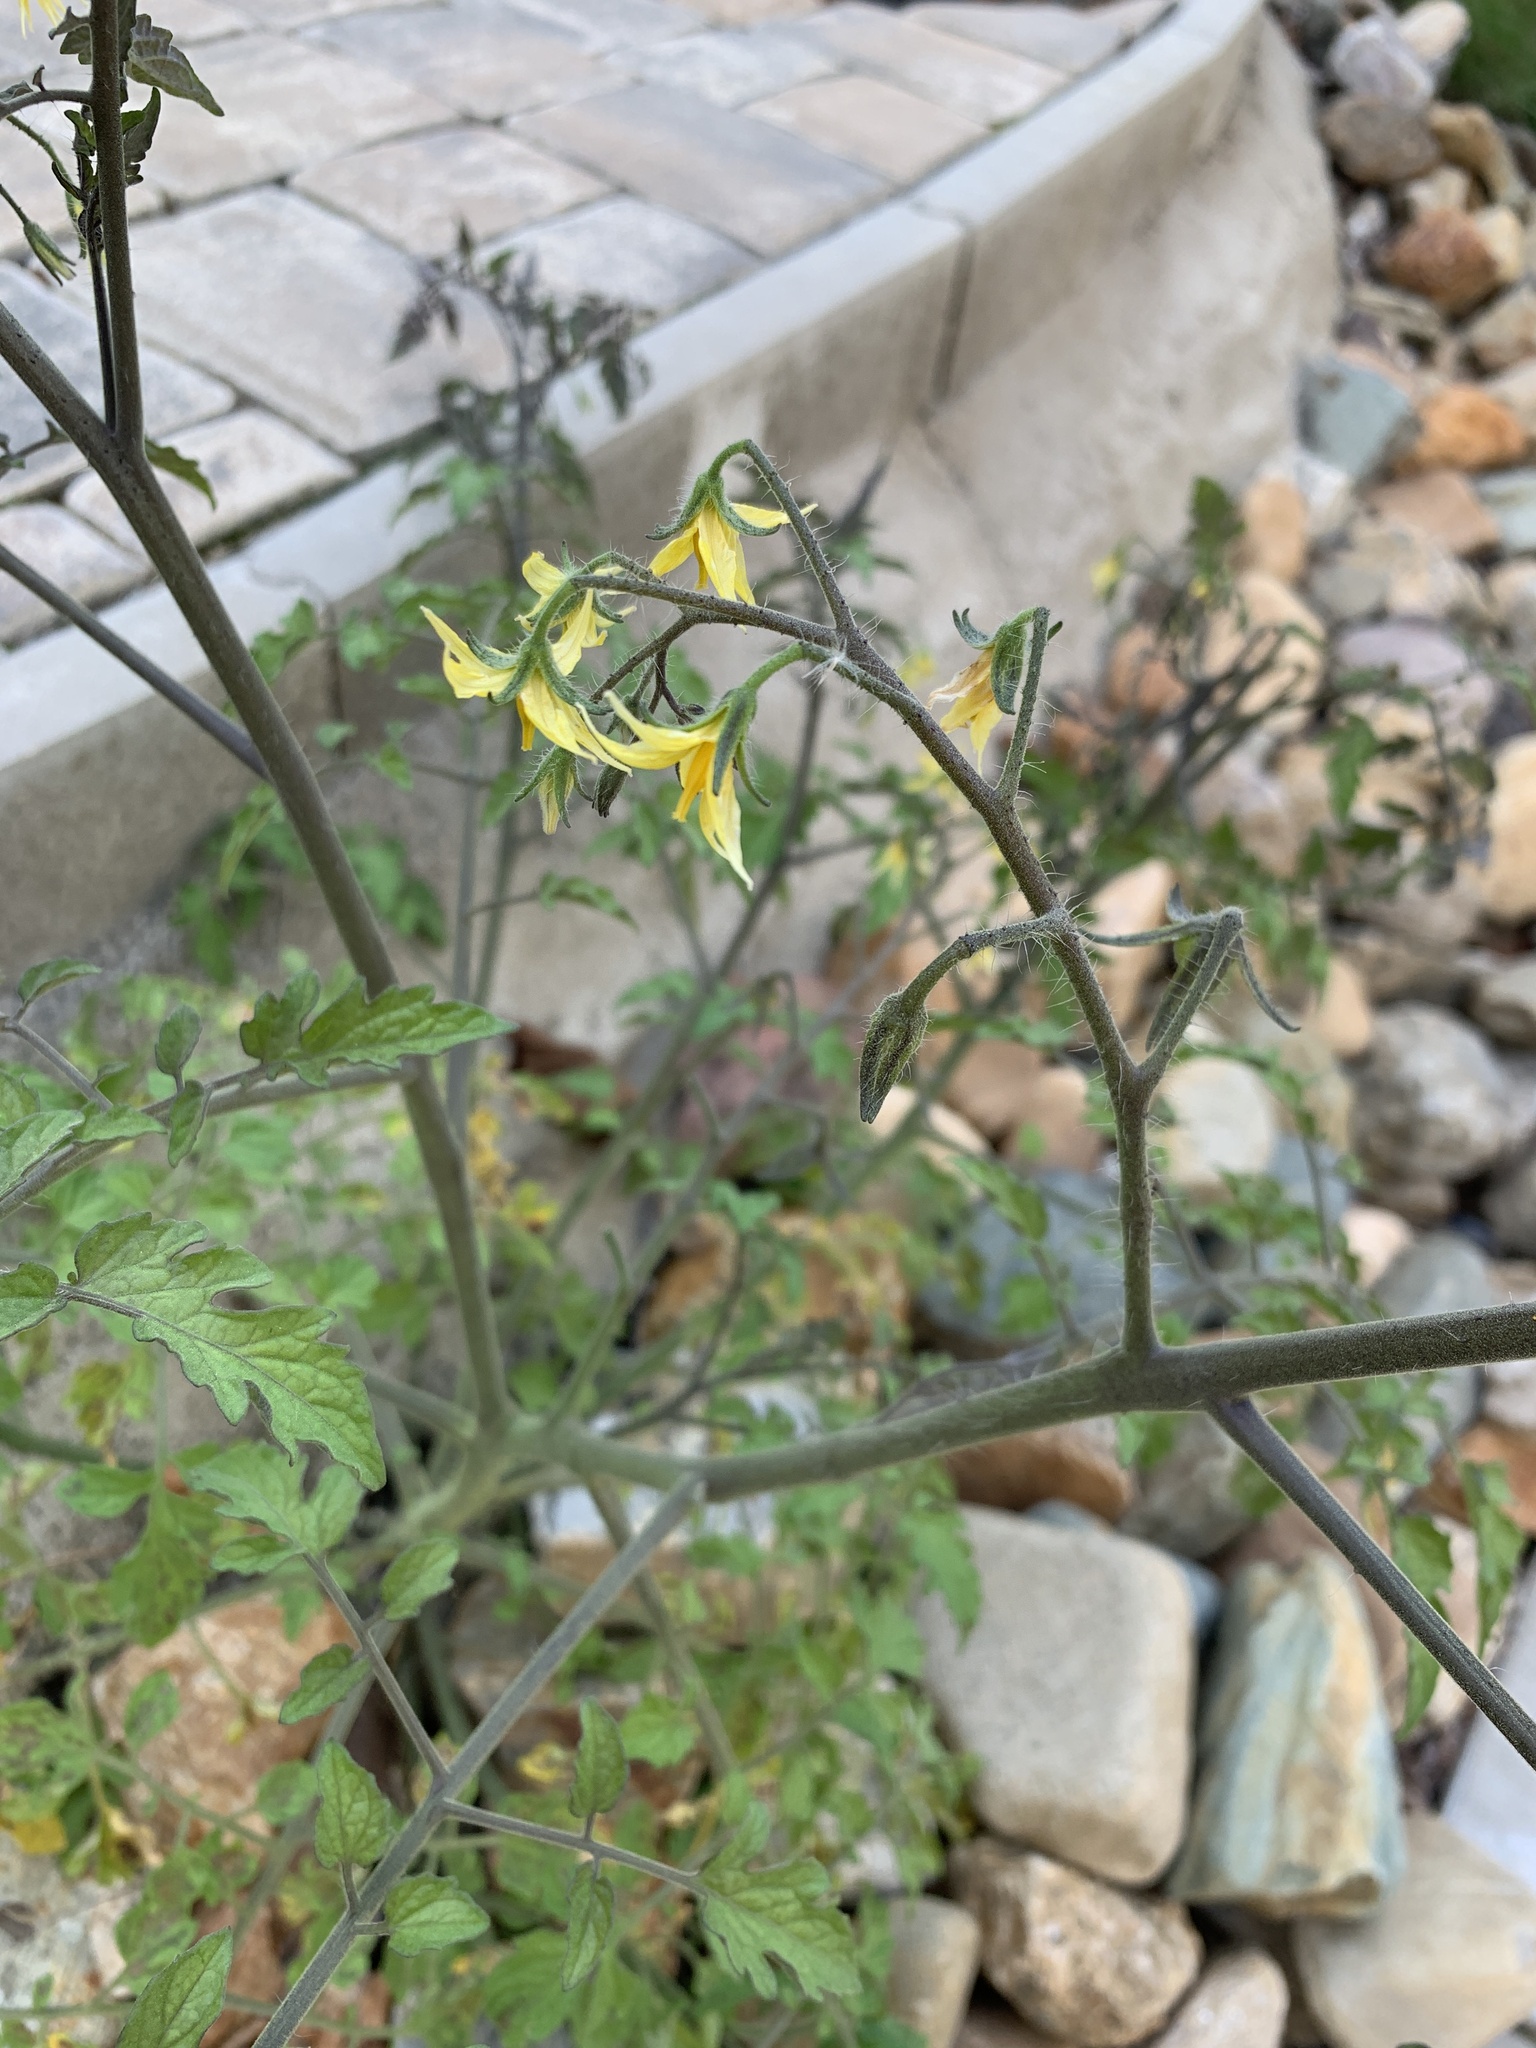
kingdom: Plantae
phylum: Tracheophyta
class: Magnoliopsida
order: Solanales
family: Solanaceae
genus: Solanum
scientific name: Solanum lycopersicum
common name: Garden tomato
